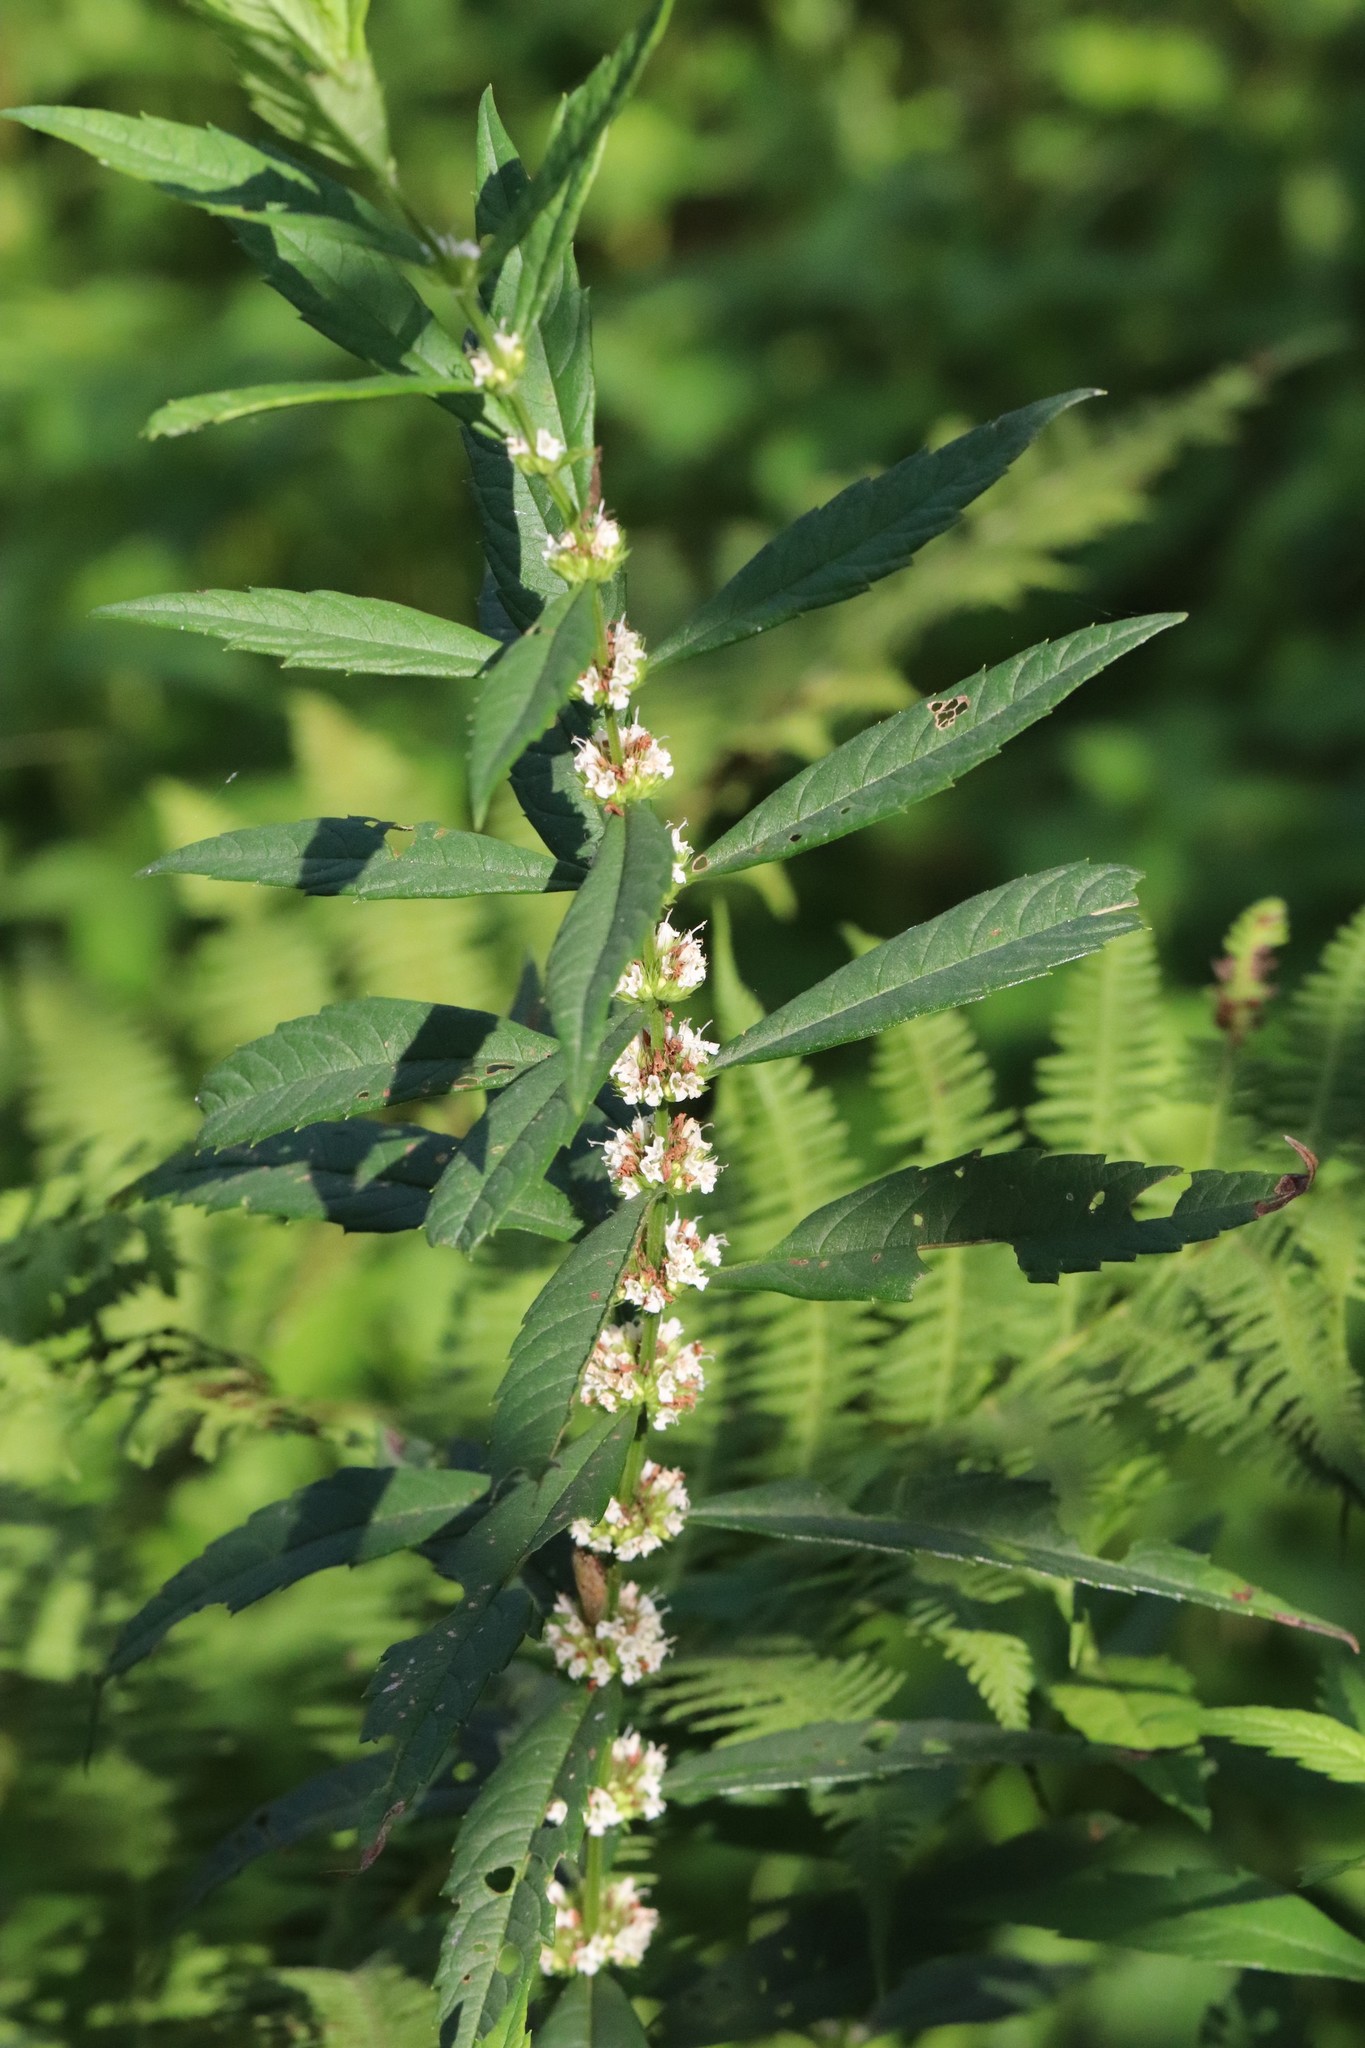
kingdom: Plantae
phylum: Tracheophyta
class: Magnoliopsida
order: Lamiales
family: Lamiaceae
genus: Lycopus
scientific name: Lycopus lucidus
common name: Shiny bugleweed
